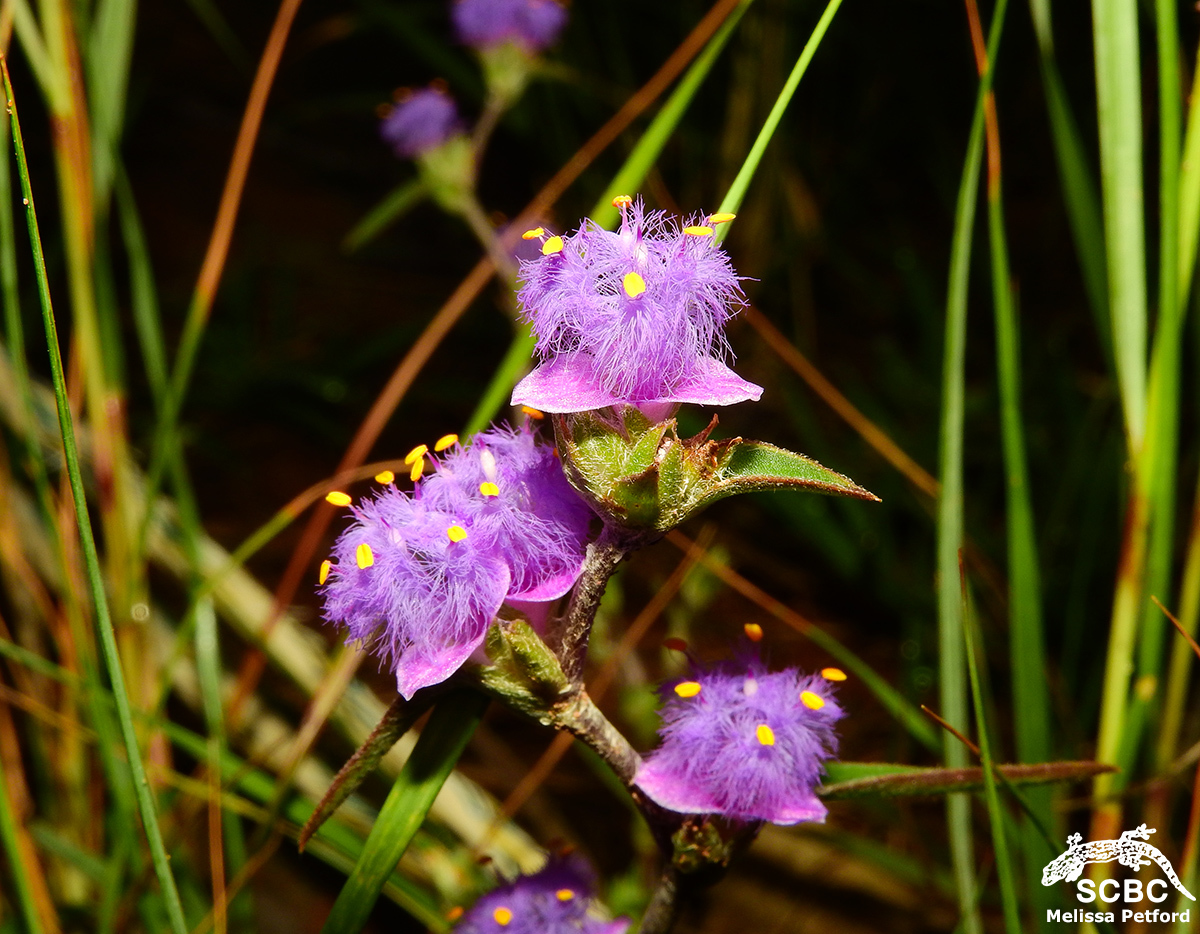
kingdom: Plantae
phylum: Tracheophyta
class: Liliopsida
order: Commelinales
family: Commelinaceae
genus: Cyanotis
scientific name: Cyanotis speciosa
